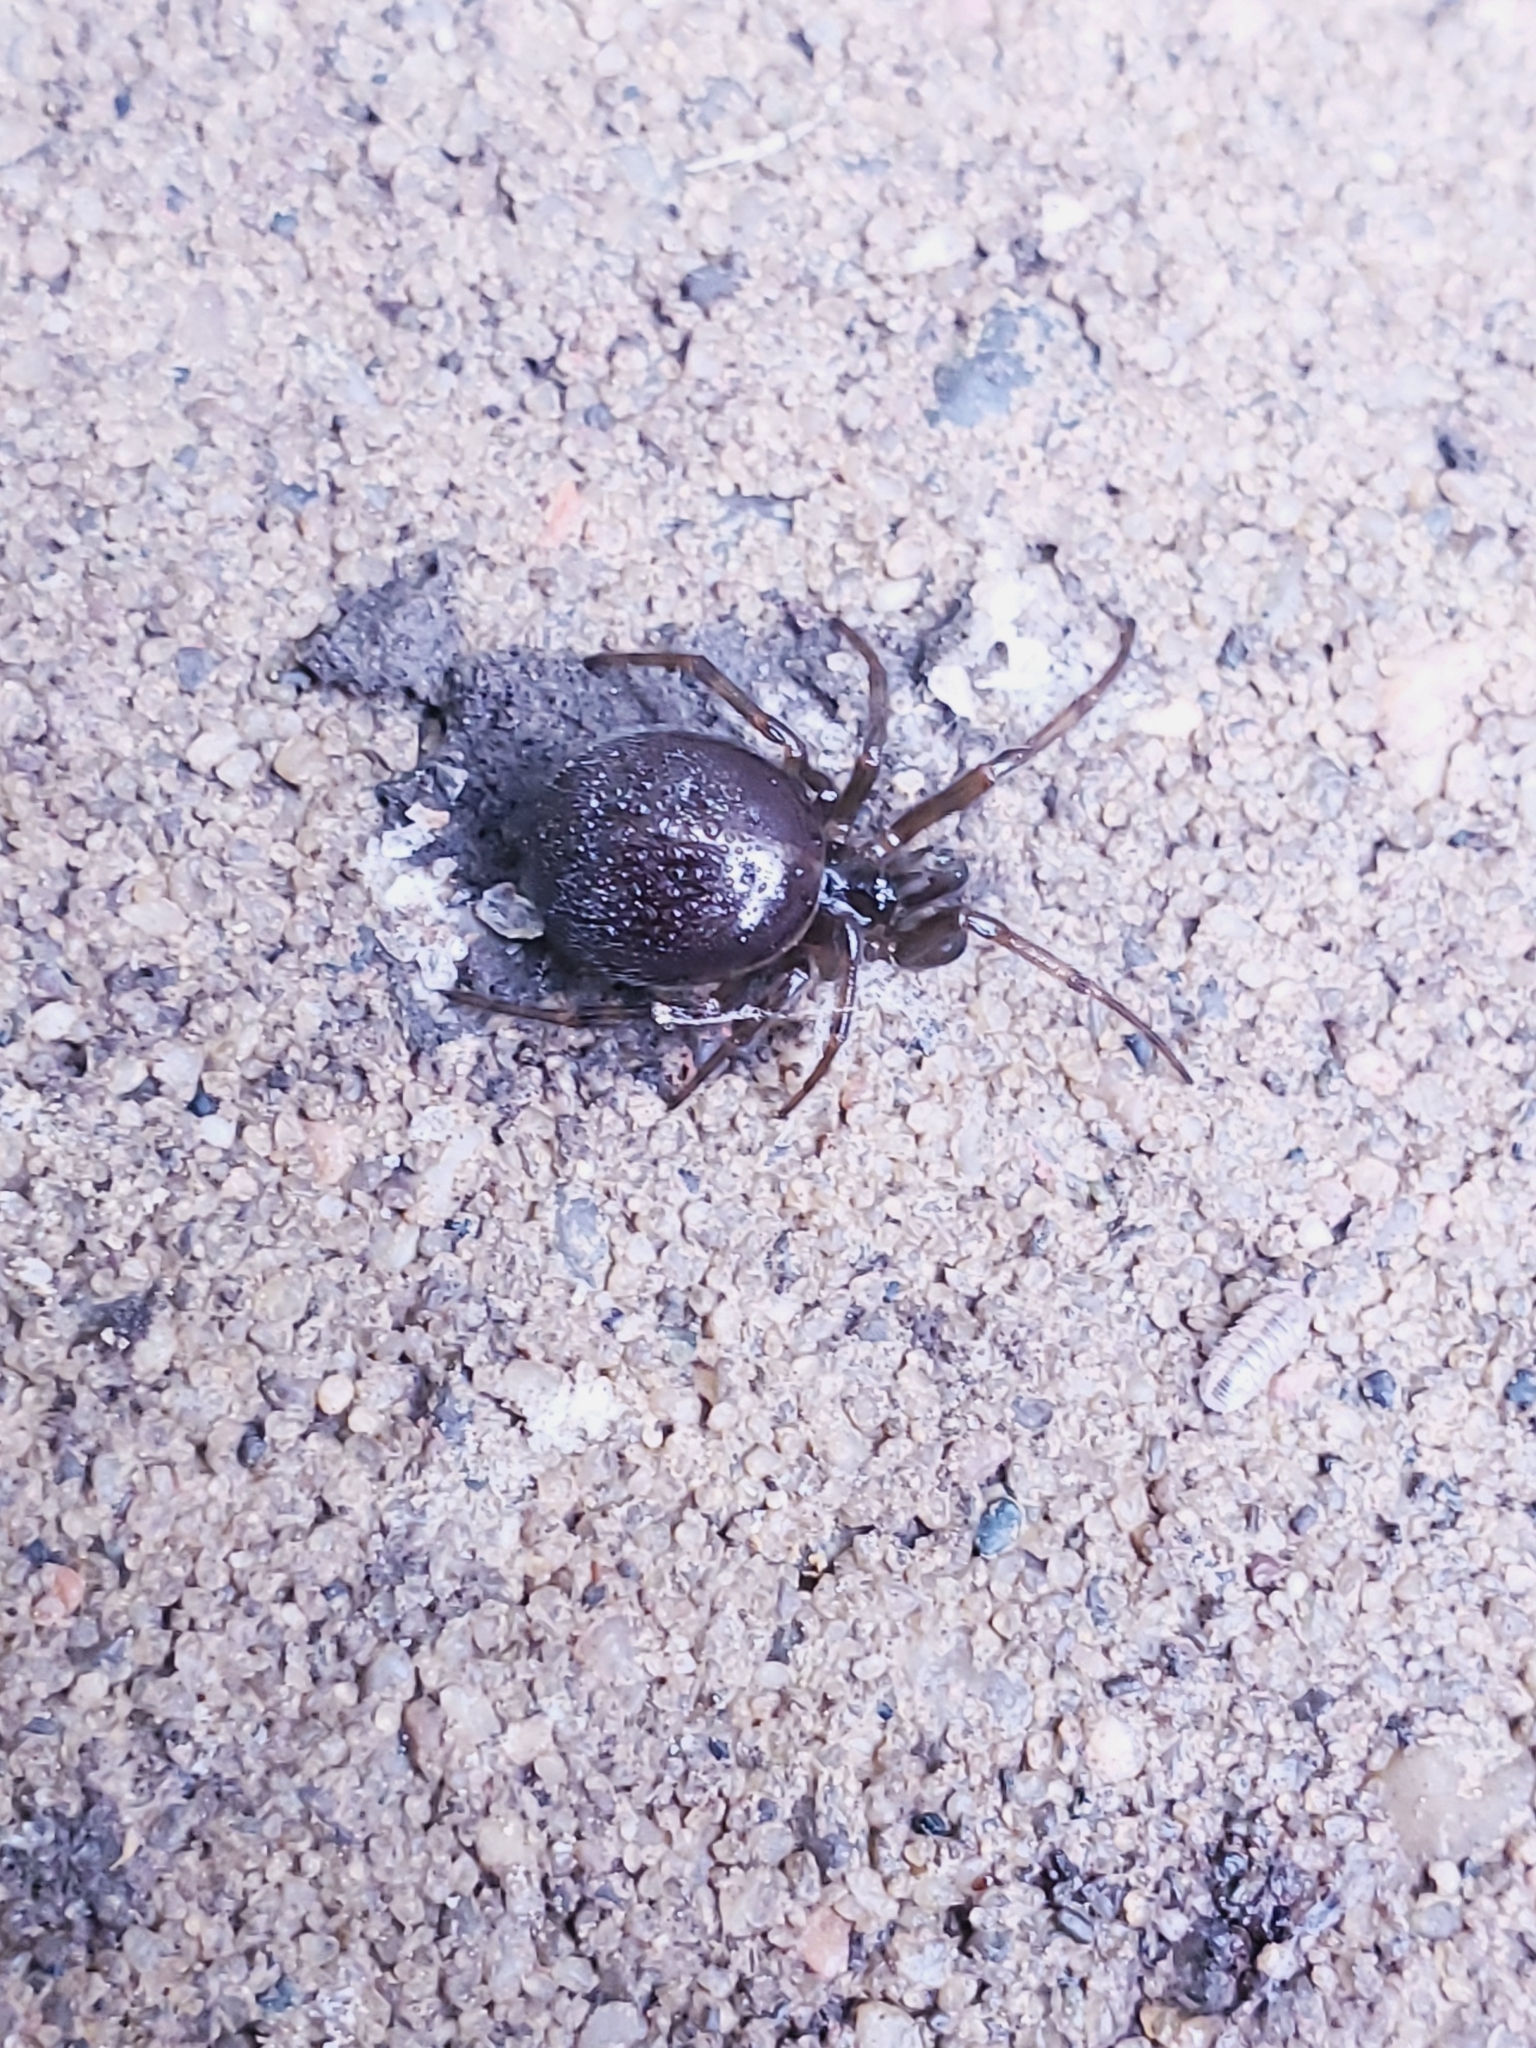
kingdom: Animalia
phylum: Arthropoda
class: Arachnida
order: Araneae
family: Theridiidae
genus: Steatoda
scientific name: Steatoda borealis
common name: Boreal combfoot
